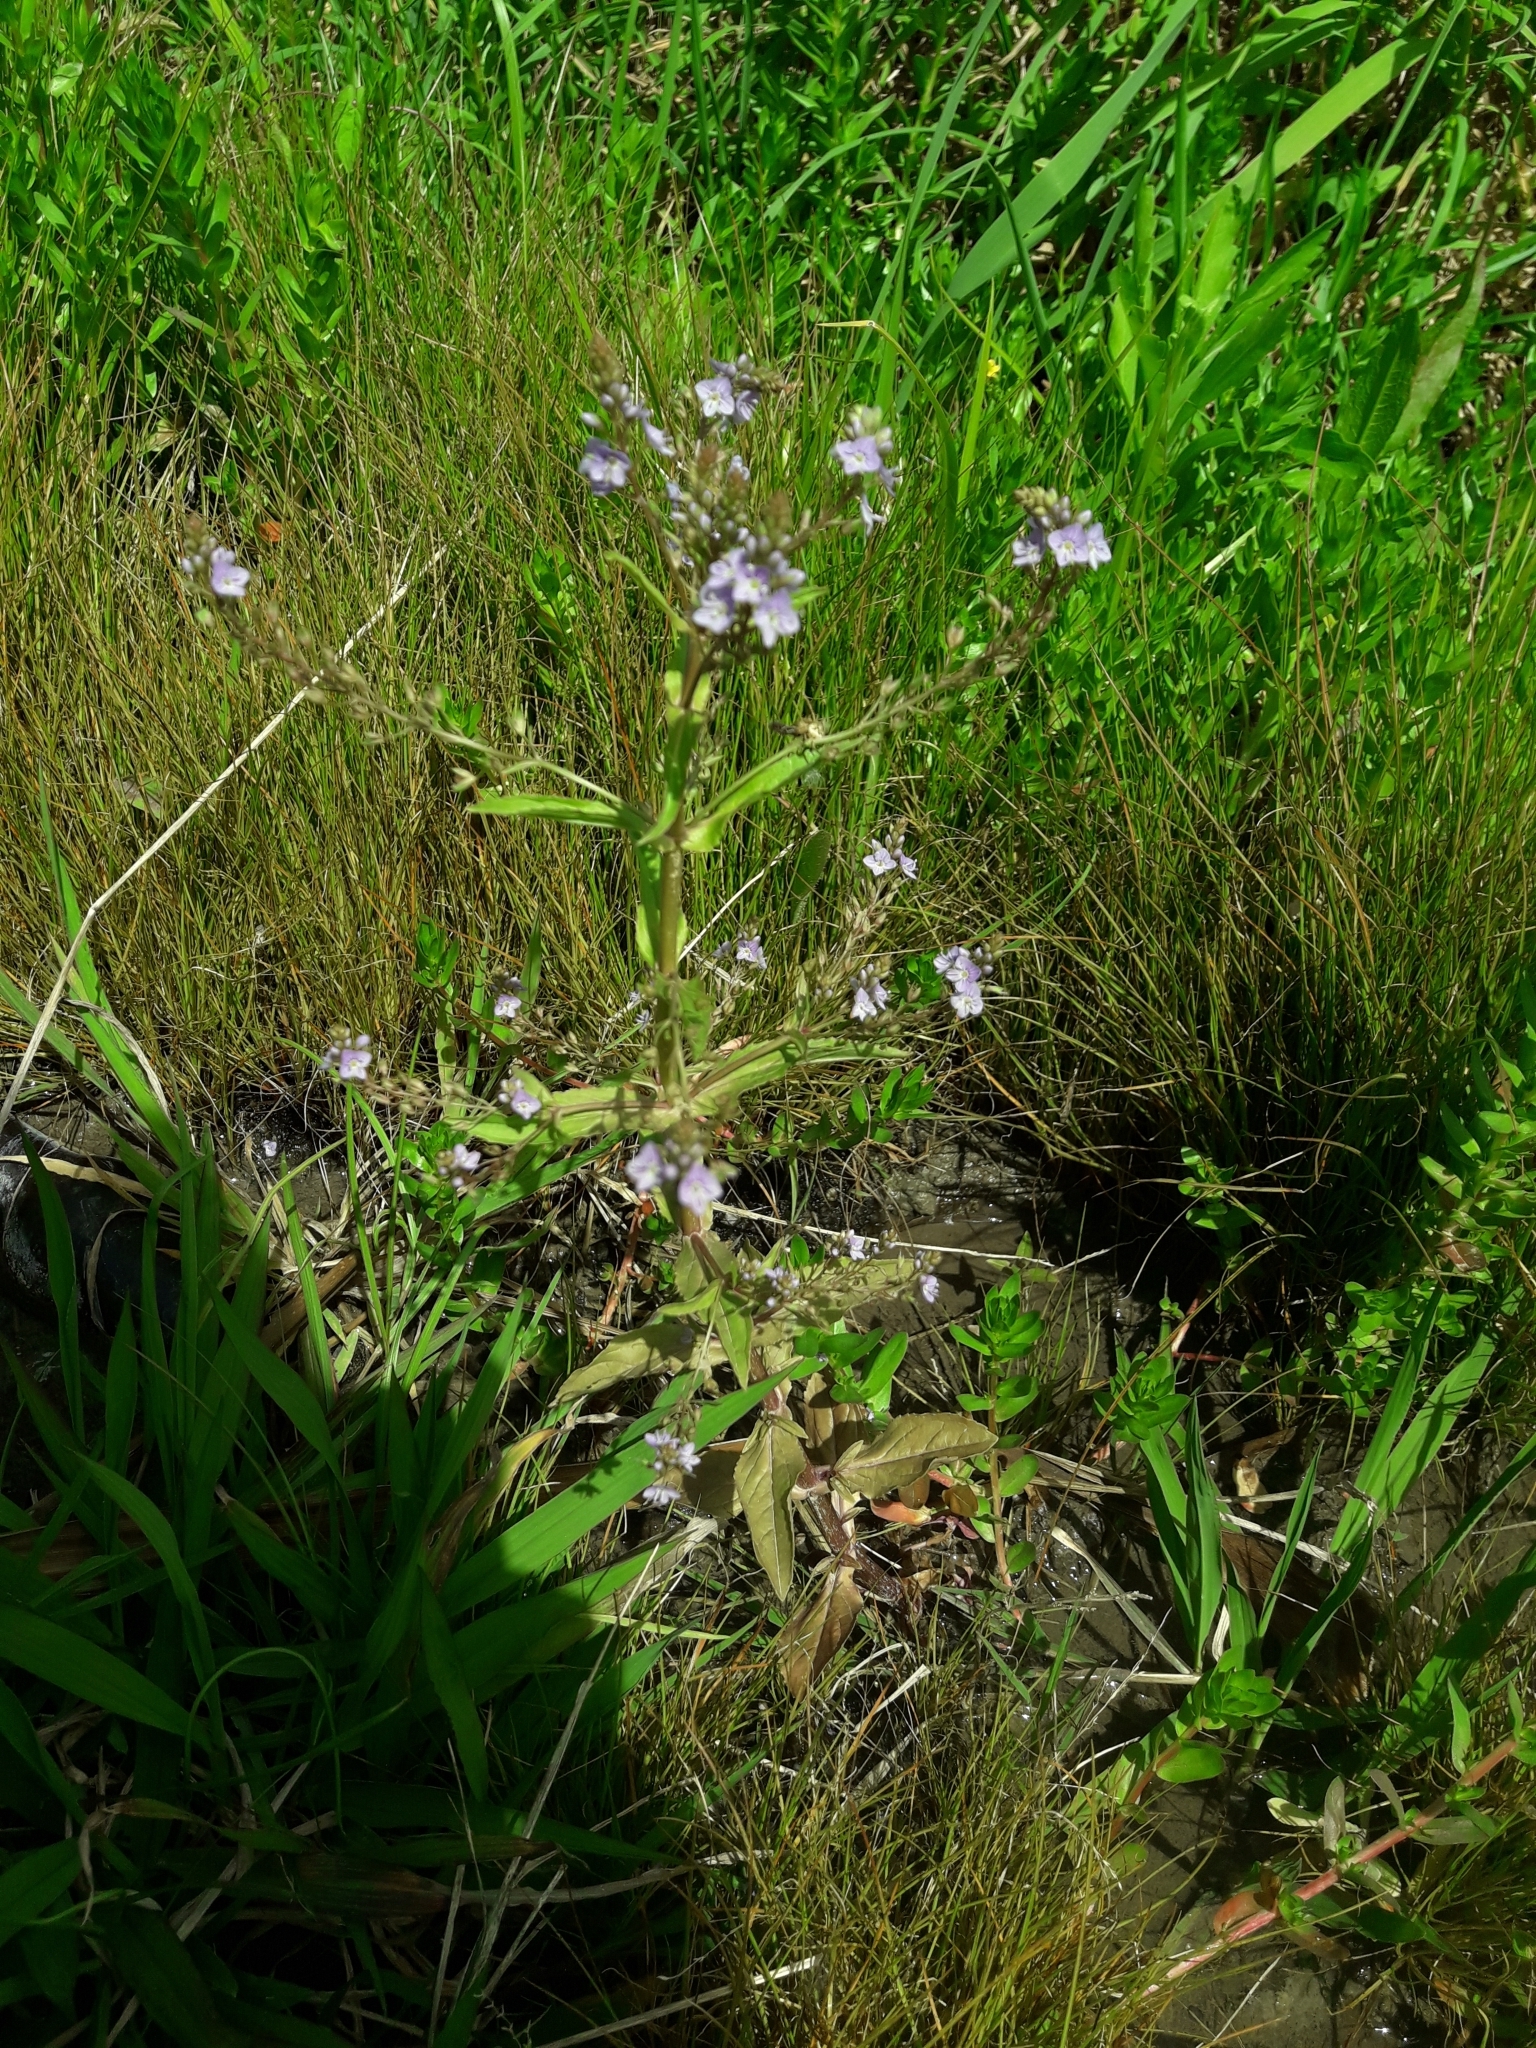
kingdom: Plantae
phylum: Tracheophyta
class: Magnoliopsida
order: Lamiales
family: Plantaginaceae
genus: Veronica
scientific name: Veronica anagallis-aquatica
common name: Water speedwell
